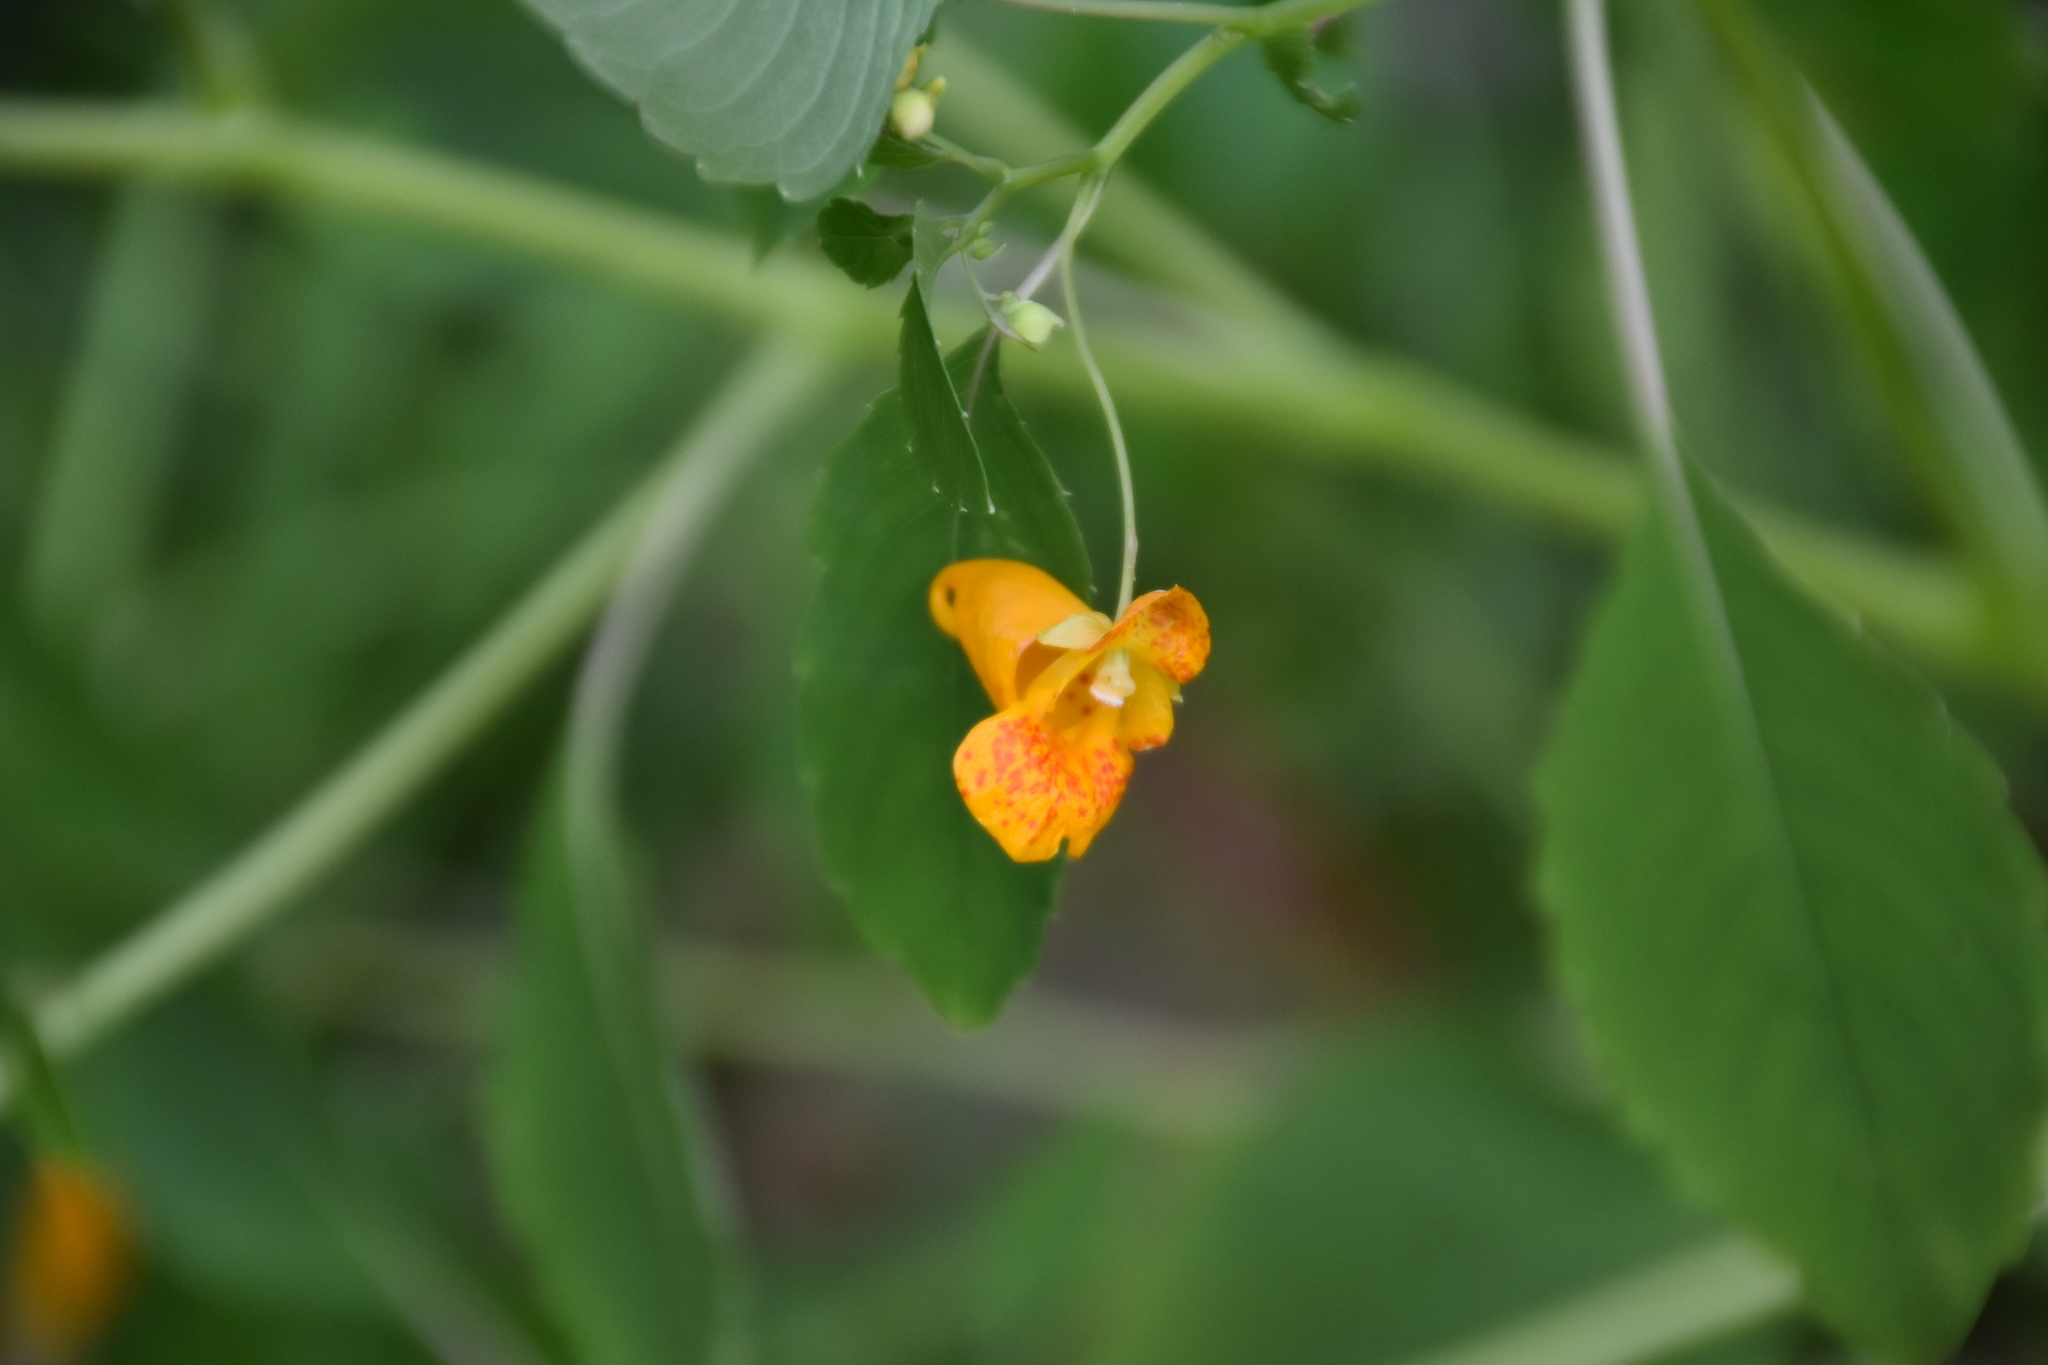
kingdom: Plantae
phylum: Tracheophyta
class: Magnoliopsida
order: Ericales
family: Balsaminaceae
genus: Impatiens
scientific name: Impatiens capensis
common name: Orange balsam
